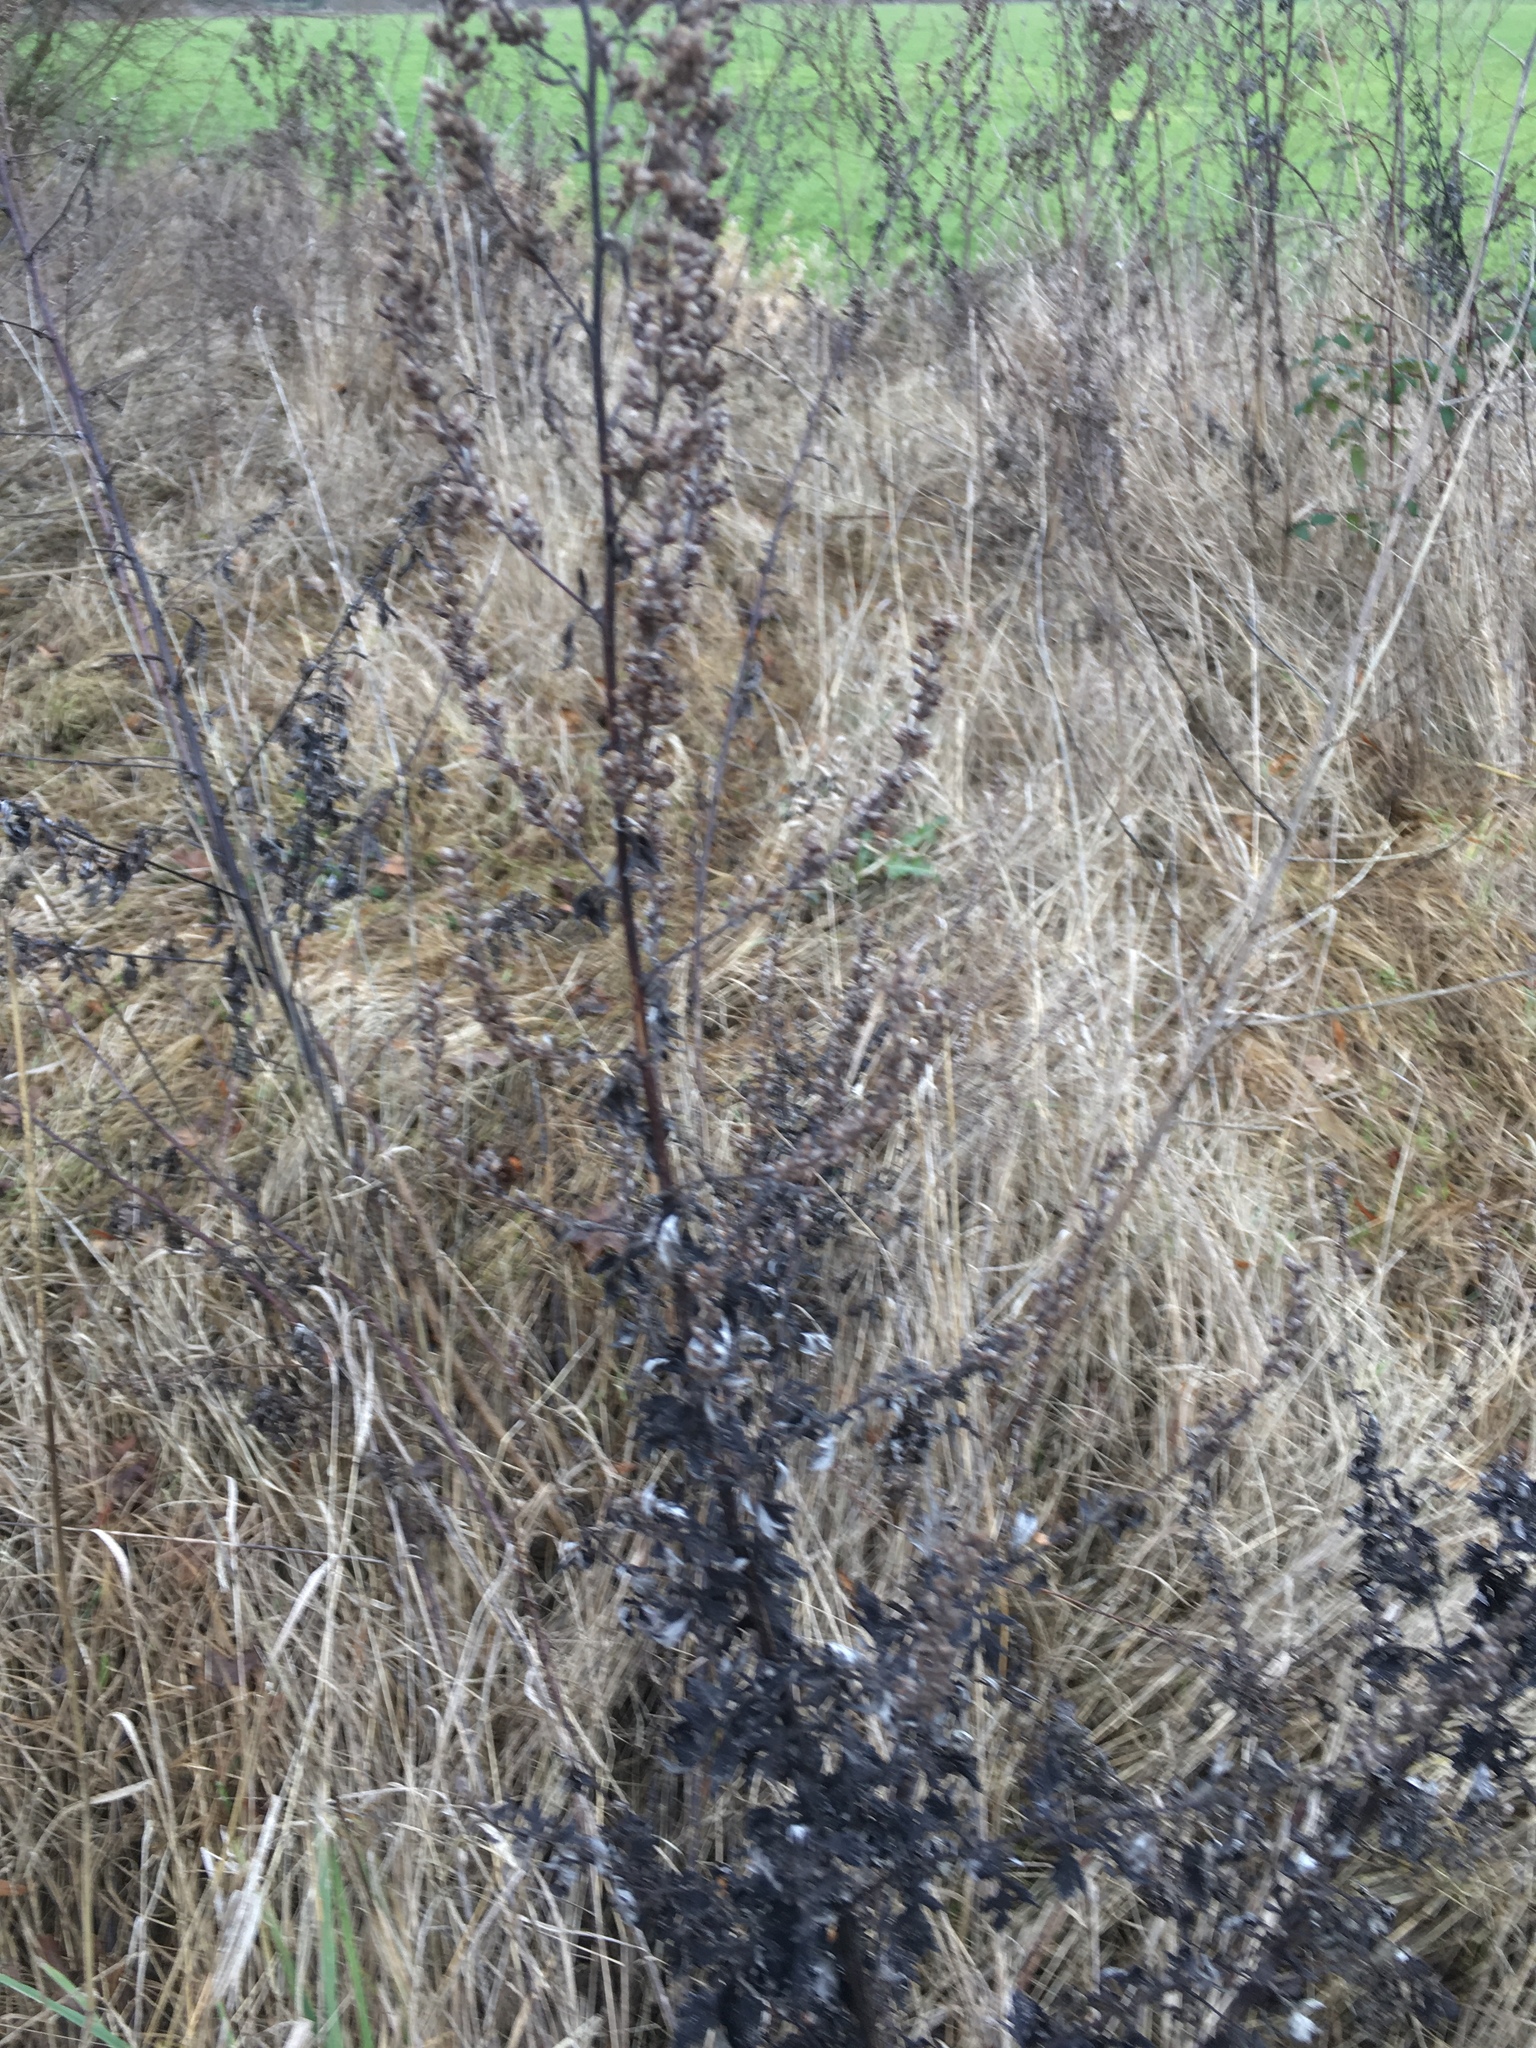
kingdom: Plantae
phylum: Tracheophyta
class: Magnoliopsida
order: Asterales
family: Asteraceae
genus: Artemisia
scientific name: Artemisia vulgaris
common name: Mugwort
